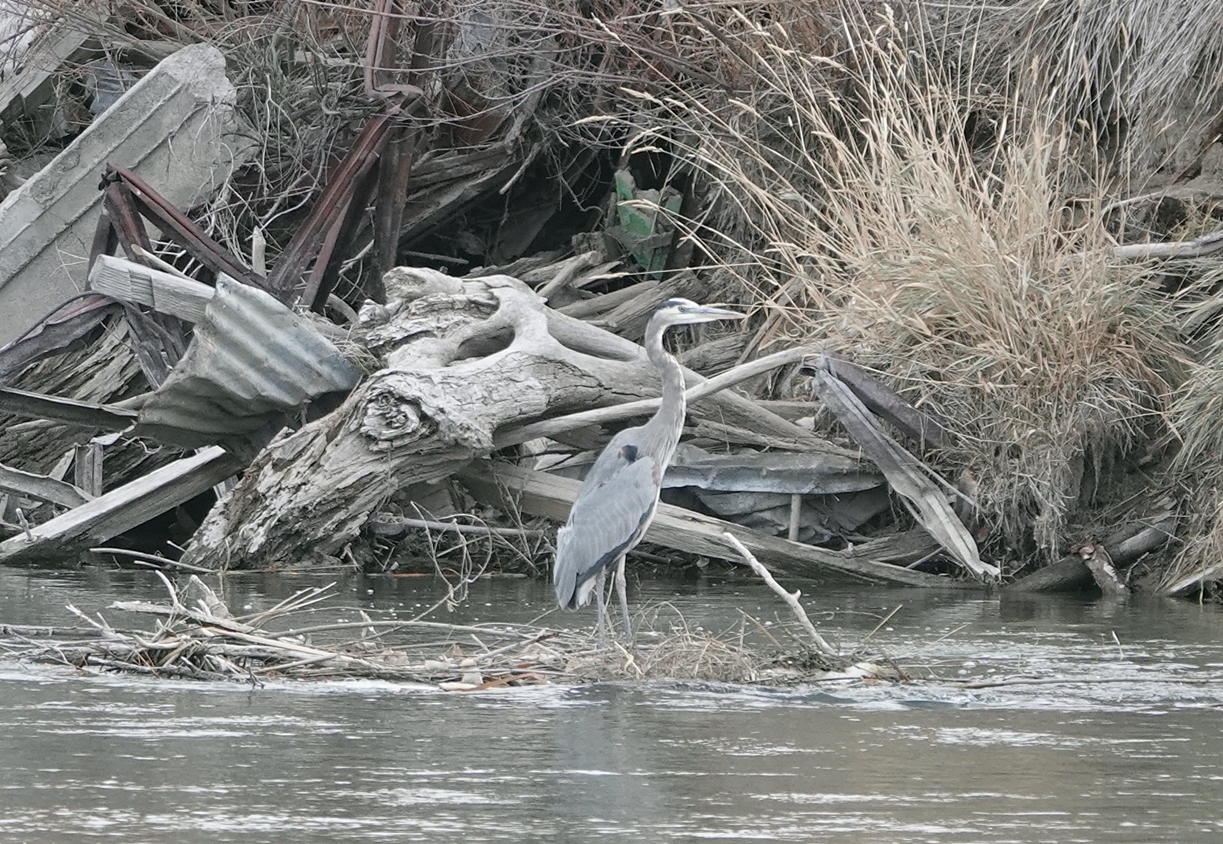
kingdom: Animalia
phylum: Chordata
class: Aves
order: Pelecaniformes
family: Ardeidae
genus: Ardea
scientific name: Ardea herodias
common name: Great blue heron
